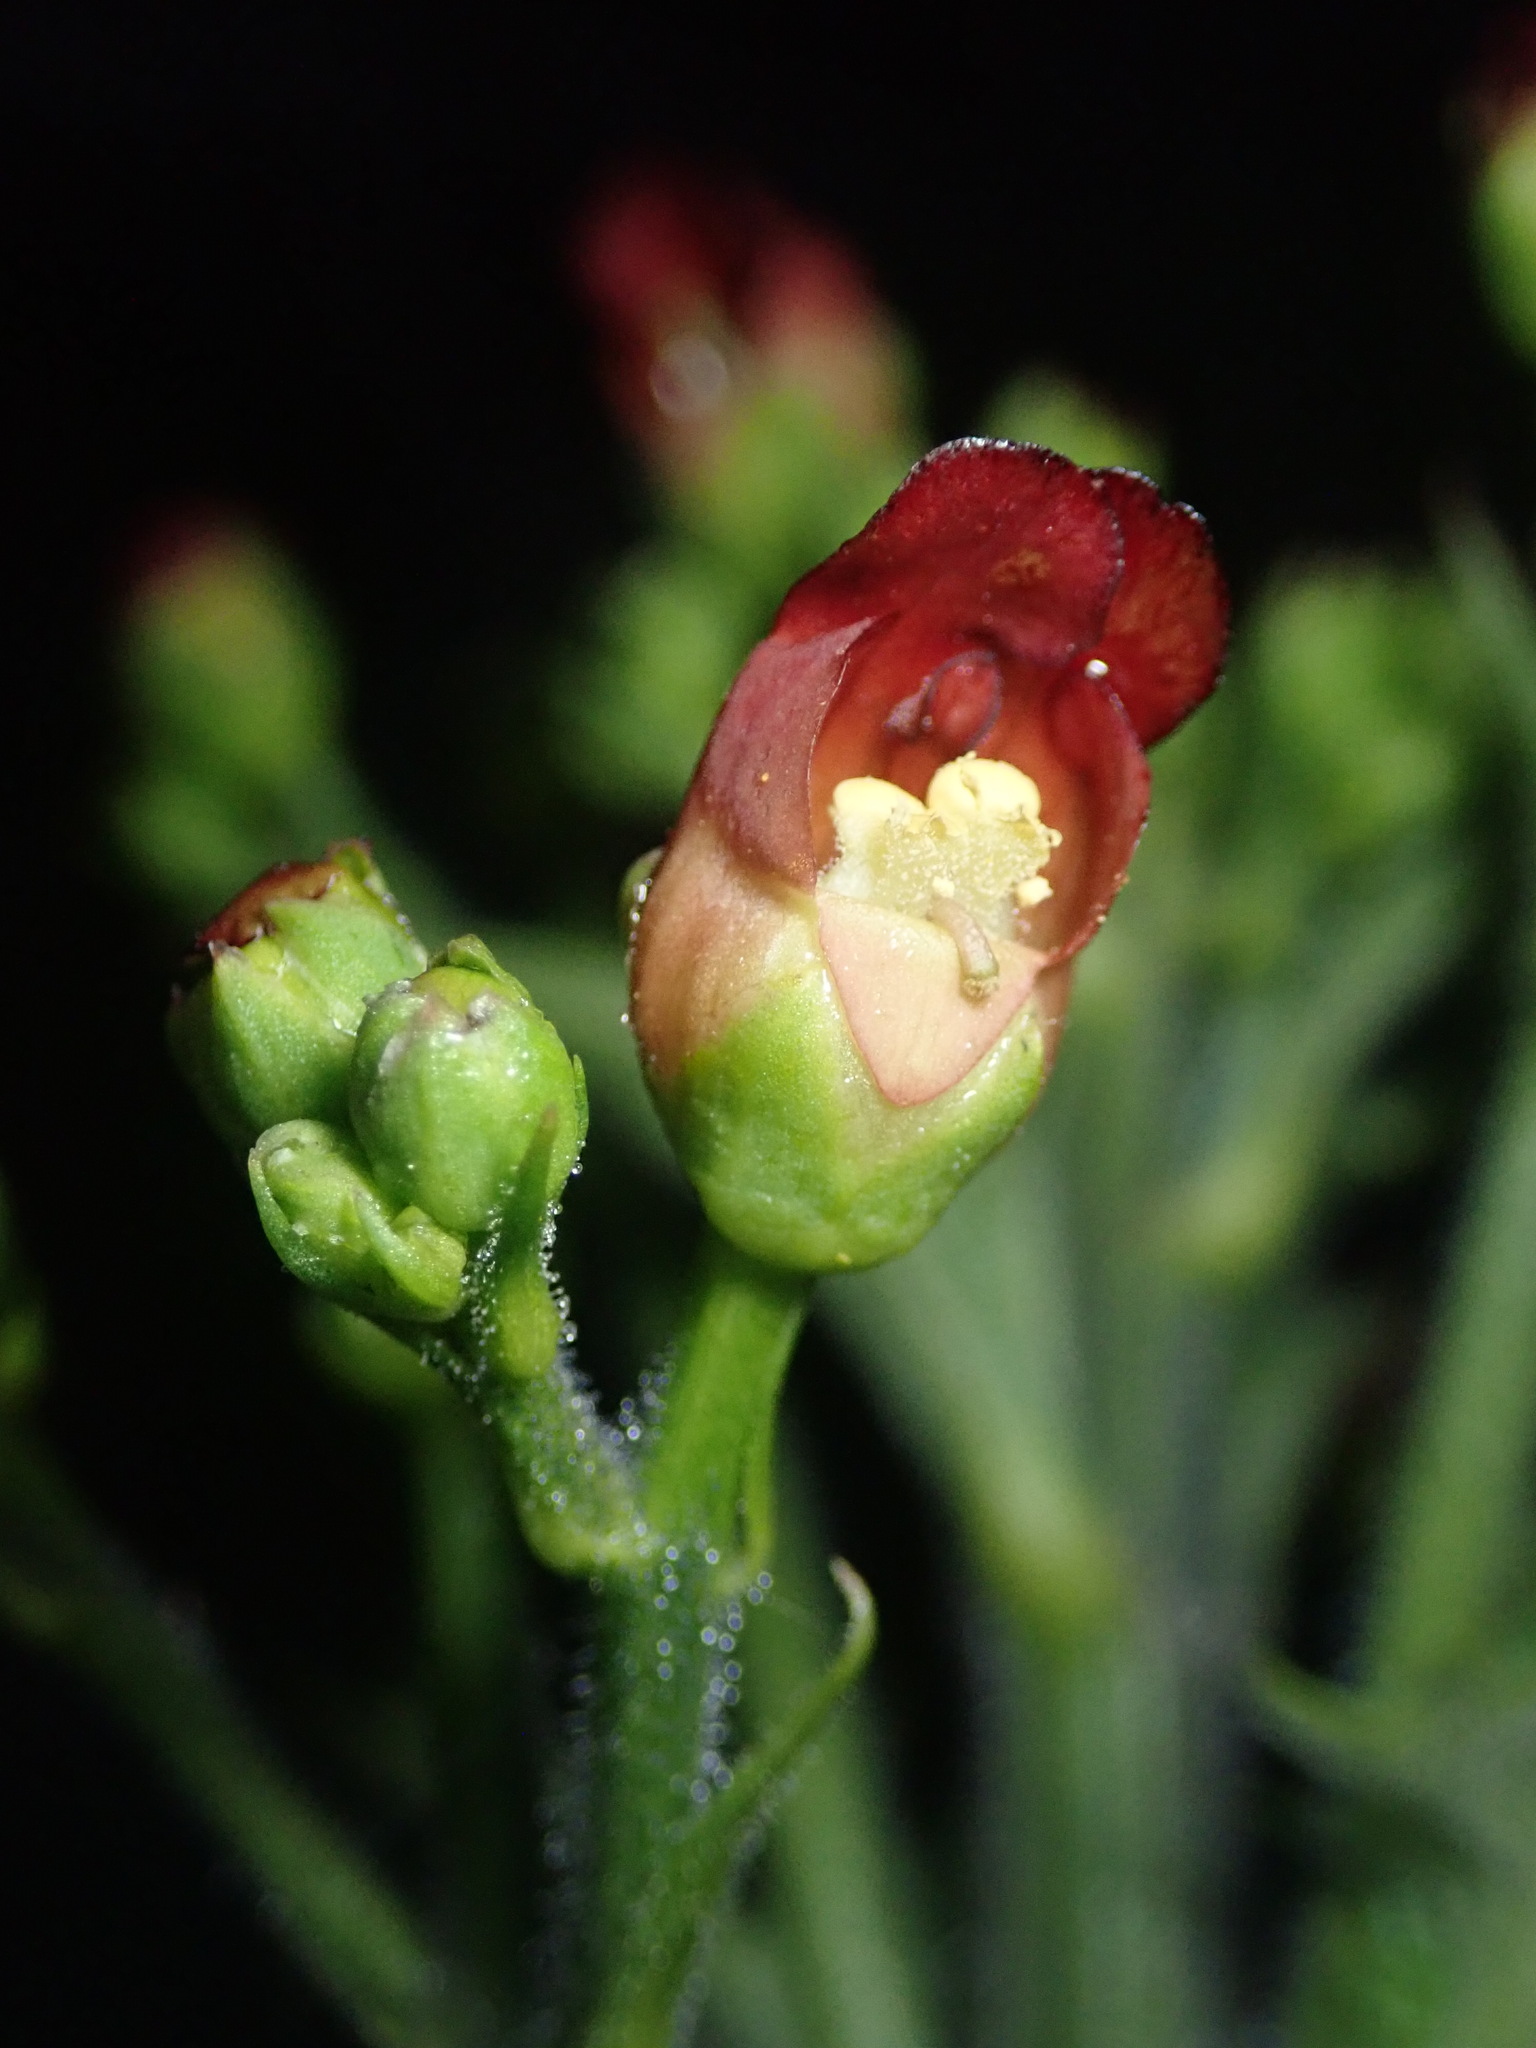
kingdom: Plantae
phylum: Tracheophyta
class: Magnoliopsida
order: Lamiales
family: Scrophulariaceae
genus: Scrophularia
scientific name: Scrophularia californica
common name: California figwort
